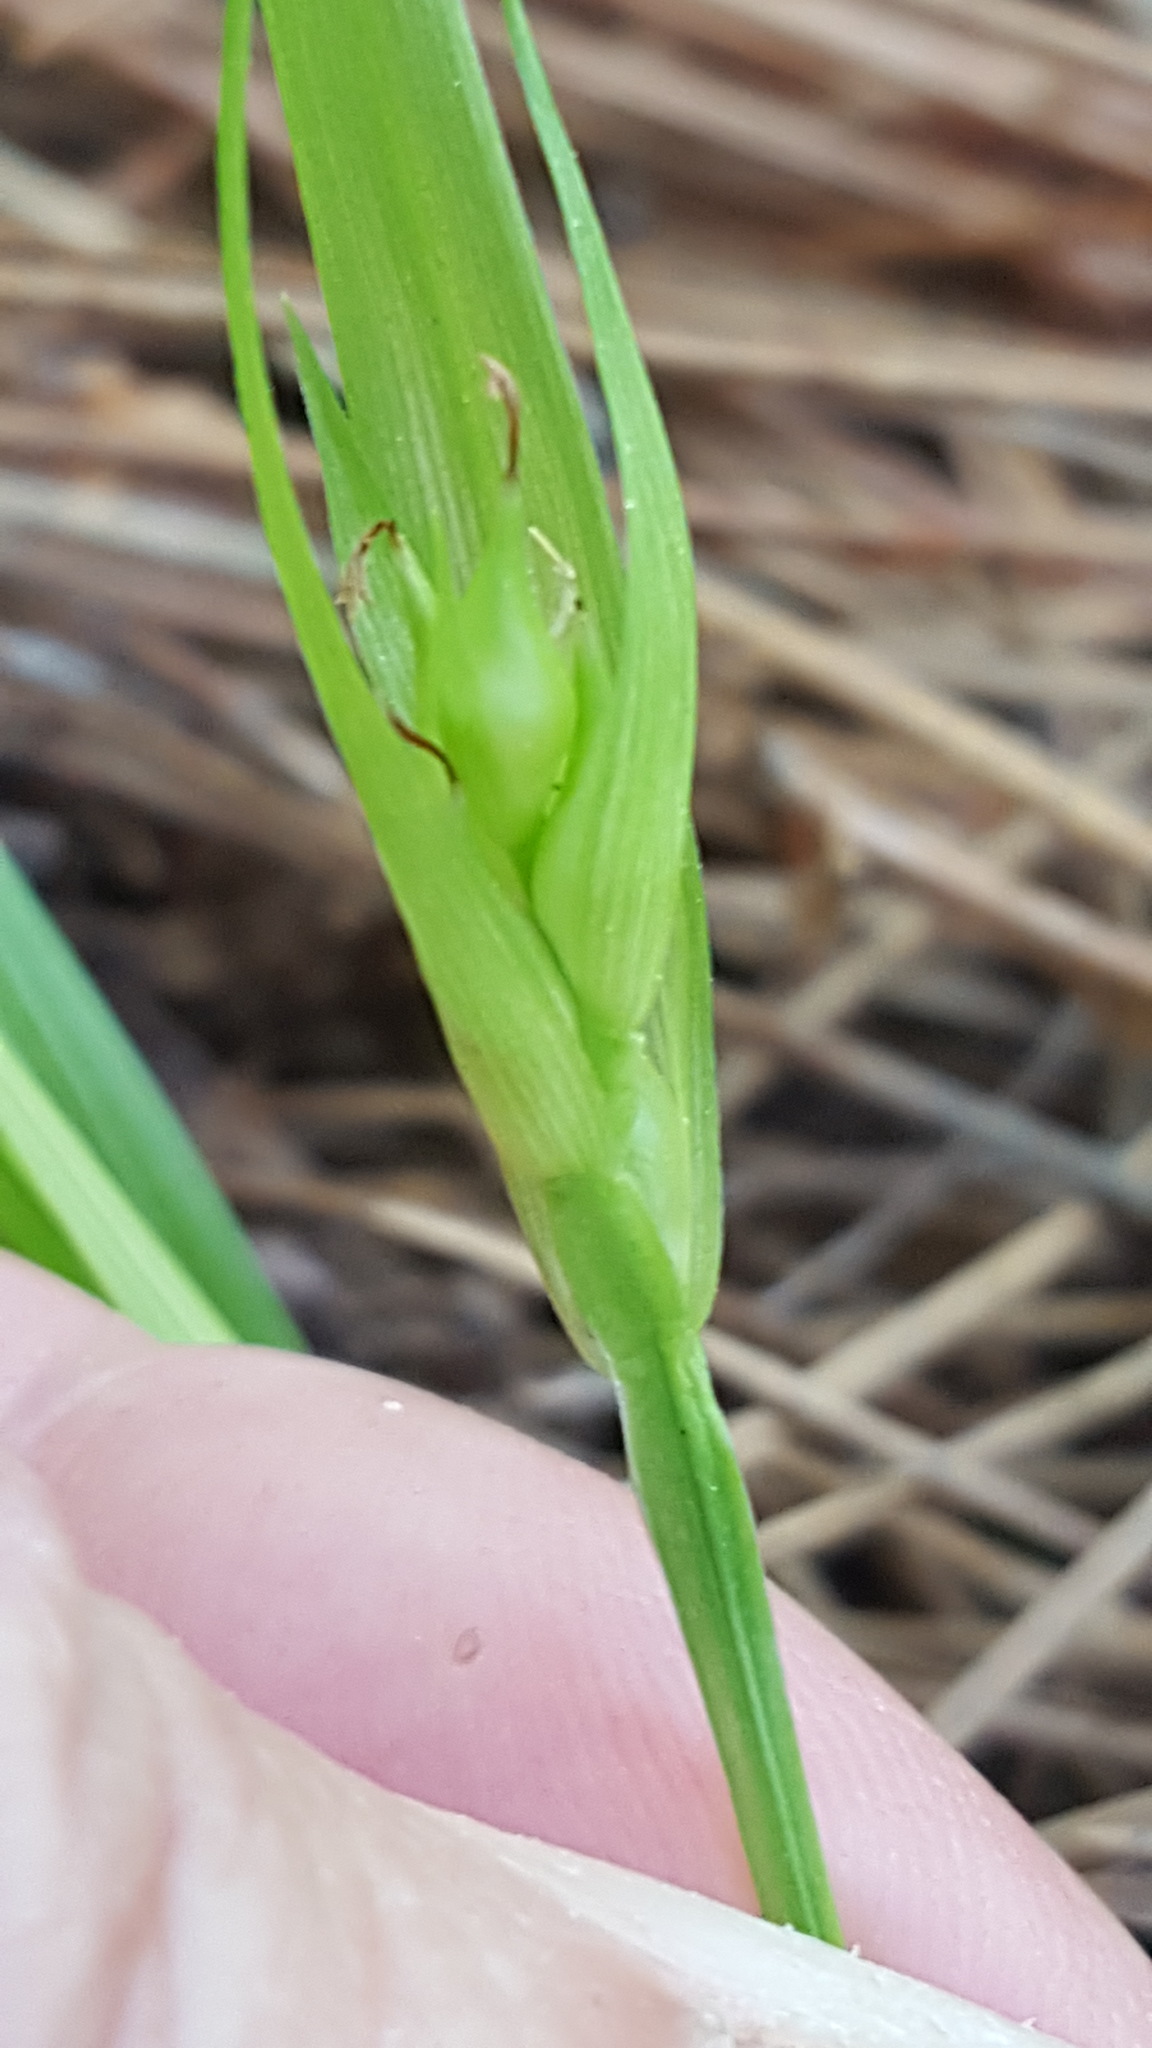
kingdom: Plantae
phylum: Tracheophyta
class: Liliopsida
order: Poales
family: Cyperaceae
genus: Carex
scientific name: Carex backii
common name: Back's sedge
